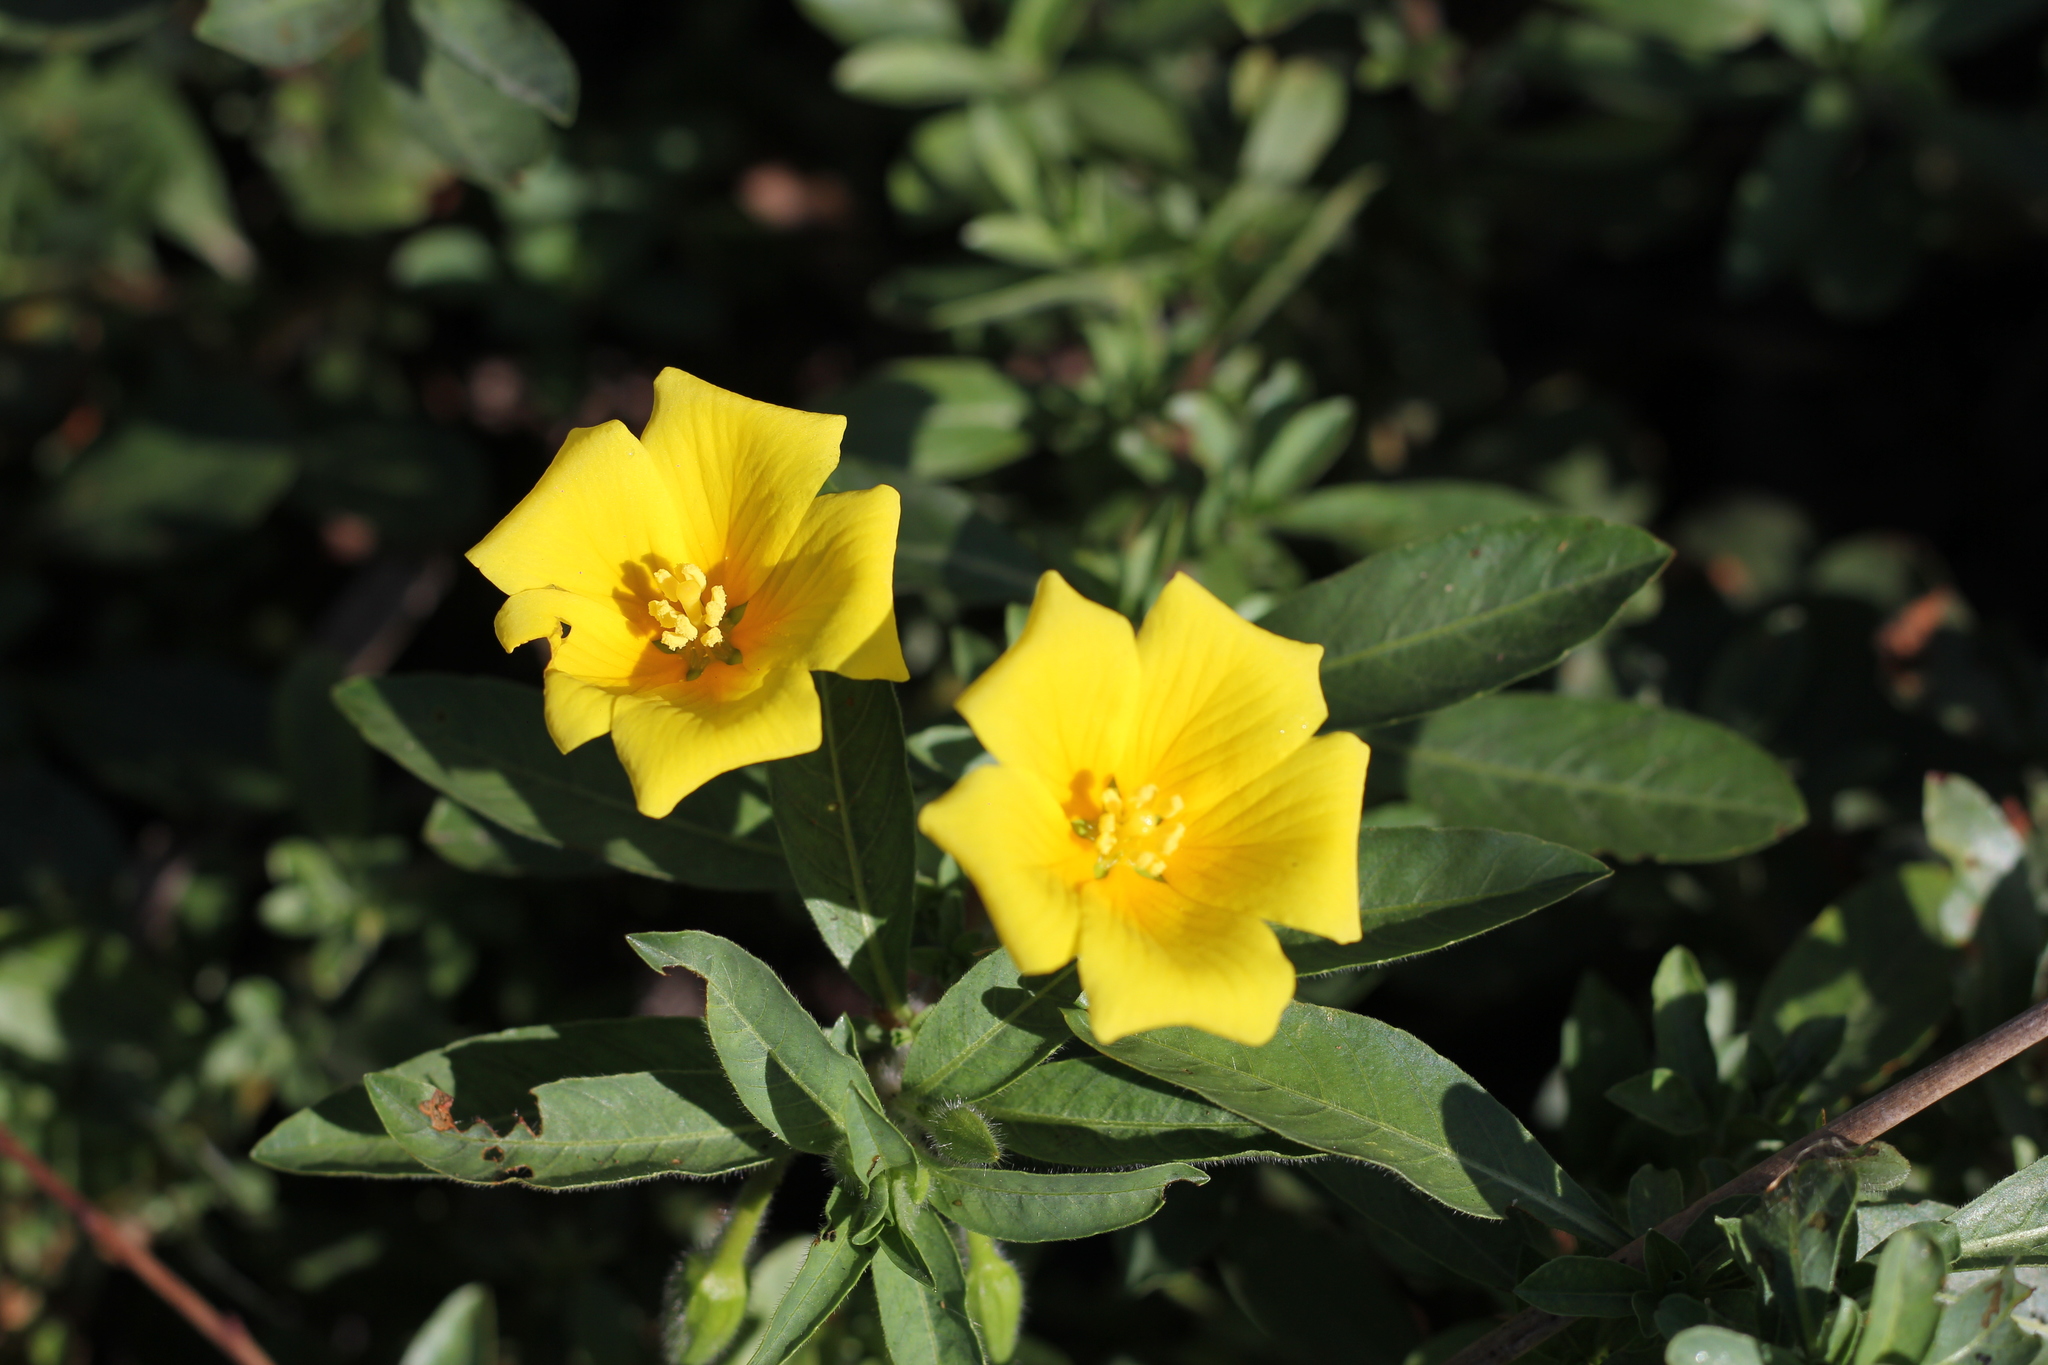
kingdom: Plantae
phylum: Tracheophyta
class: Magnoliopsida
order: Myrtales
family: Onagraceae
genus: Ludwigia
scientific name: Ludwigia peploides
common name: Floating primrose-willow
